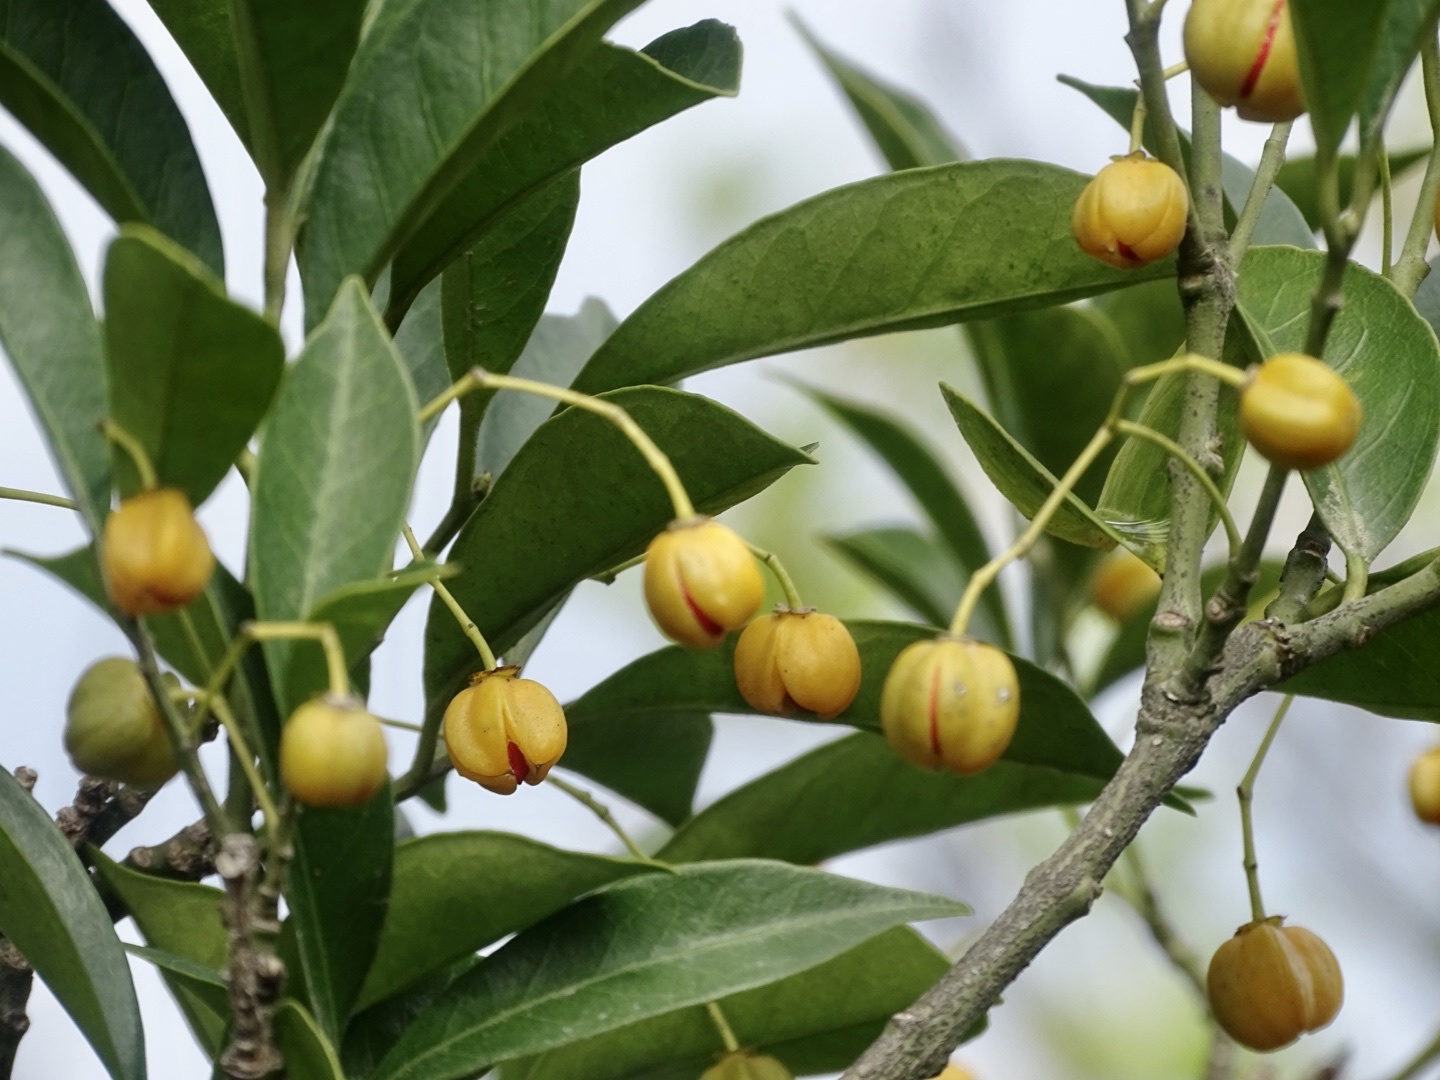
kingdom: Plantae
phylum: Tracheophyta
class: Magnoliopsida
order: Celastrales
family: Celastraceae
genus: Euonymus
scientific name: Euonymus nitidus
